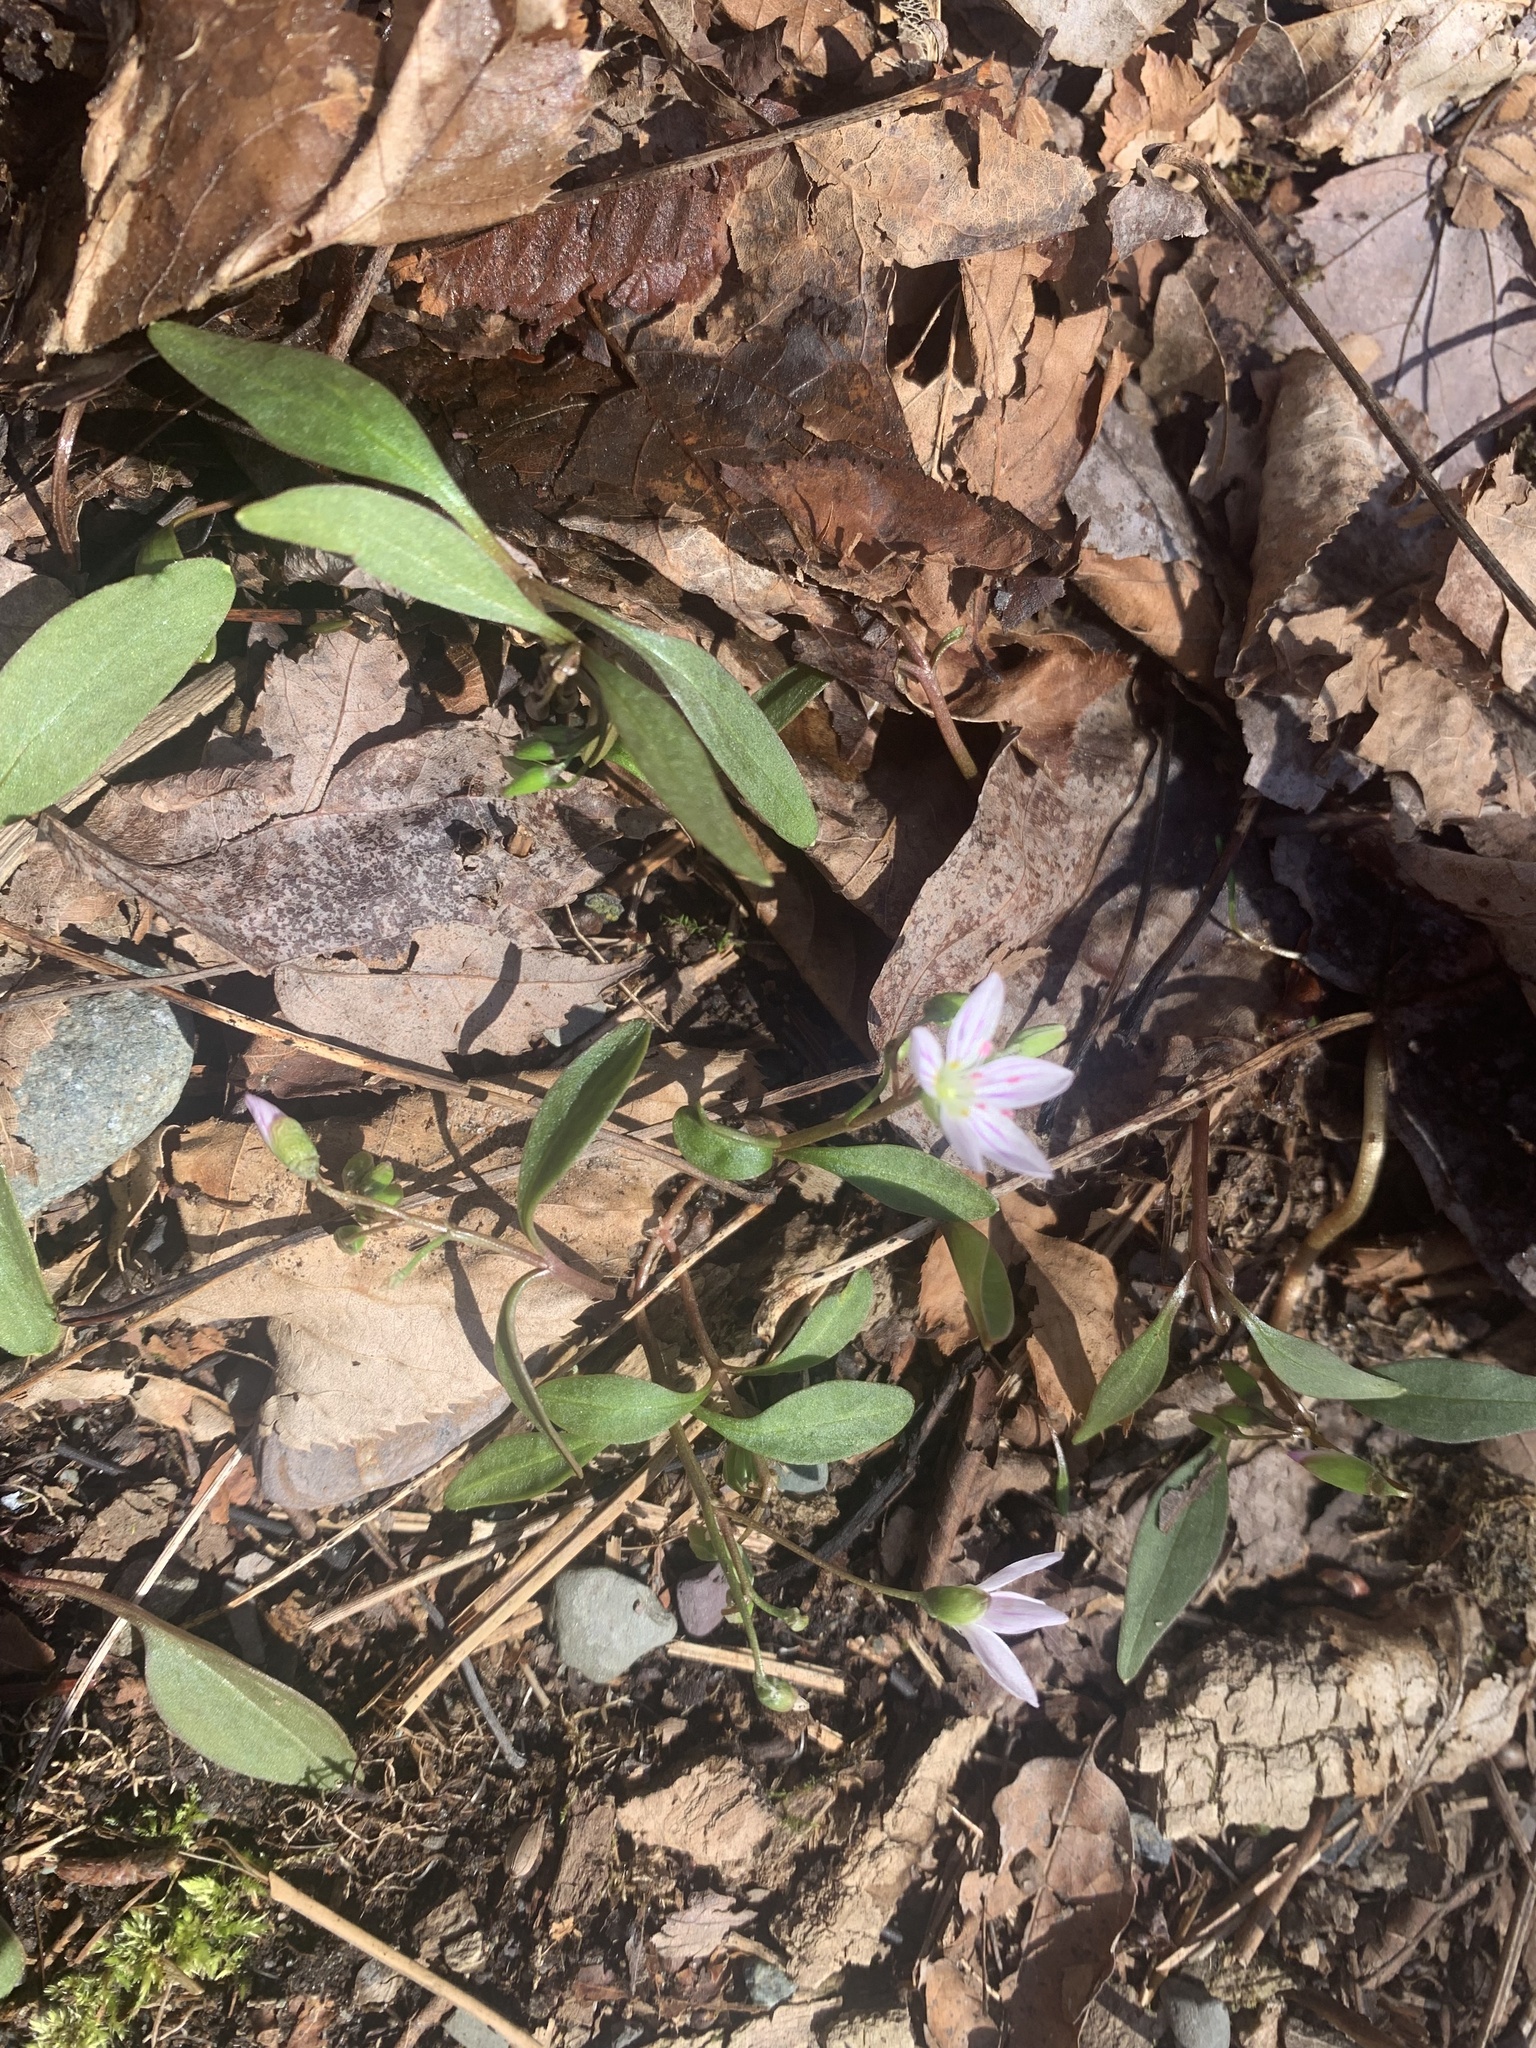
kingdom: Plantae
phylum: Tracheophyta
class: Magnoliopsida
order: Caryophyllales
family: Montiaceae
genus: Claytonia
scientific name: Claytonia caroliniana
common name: Carolina spring beauty
